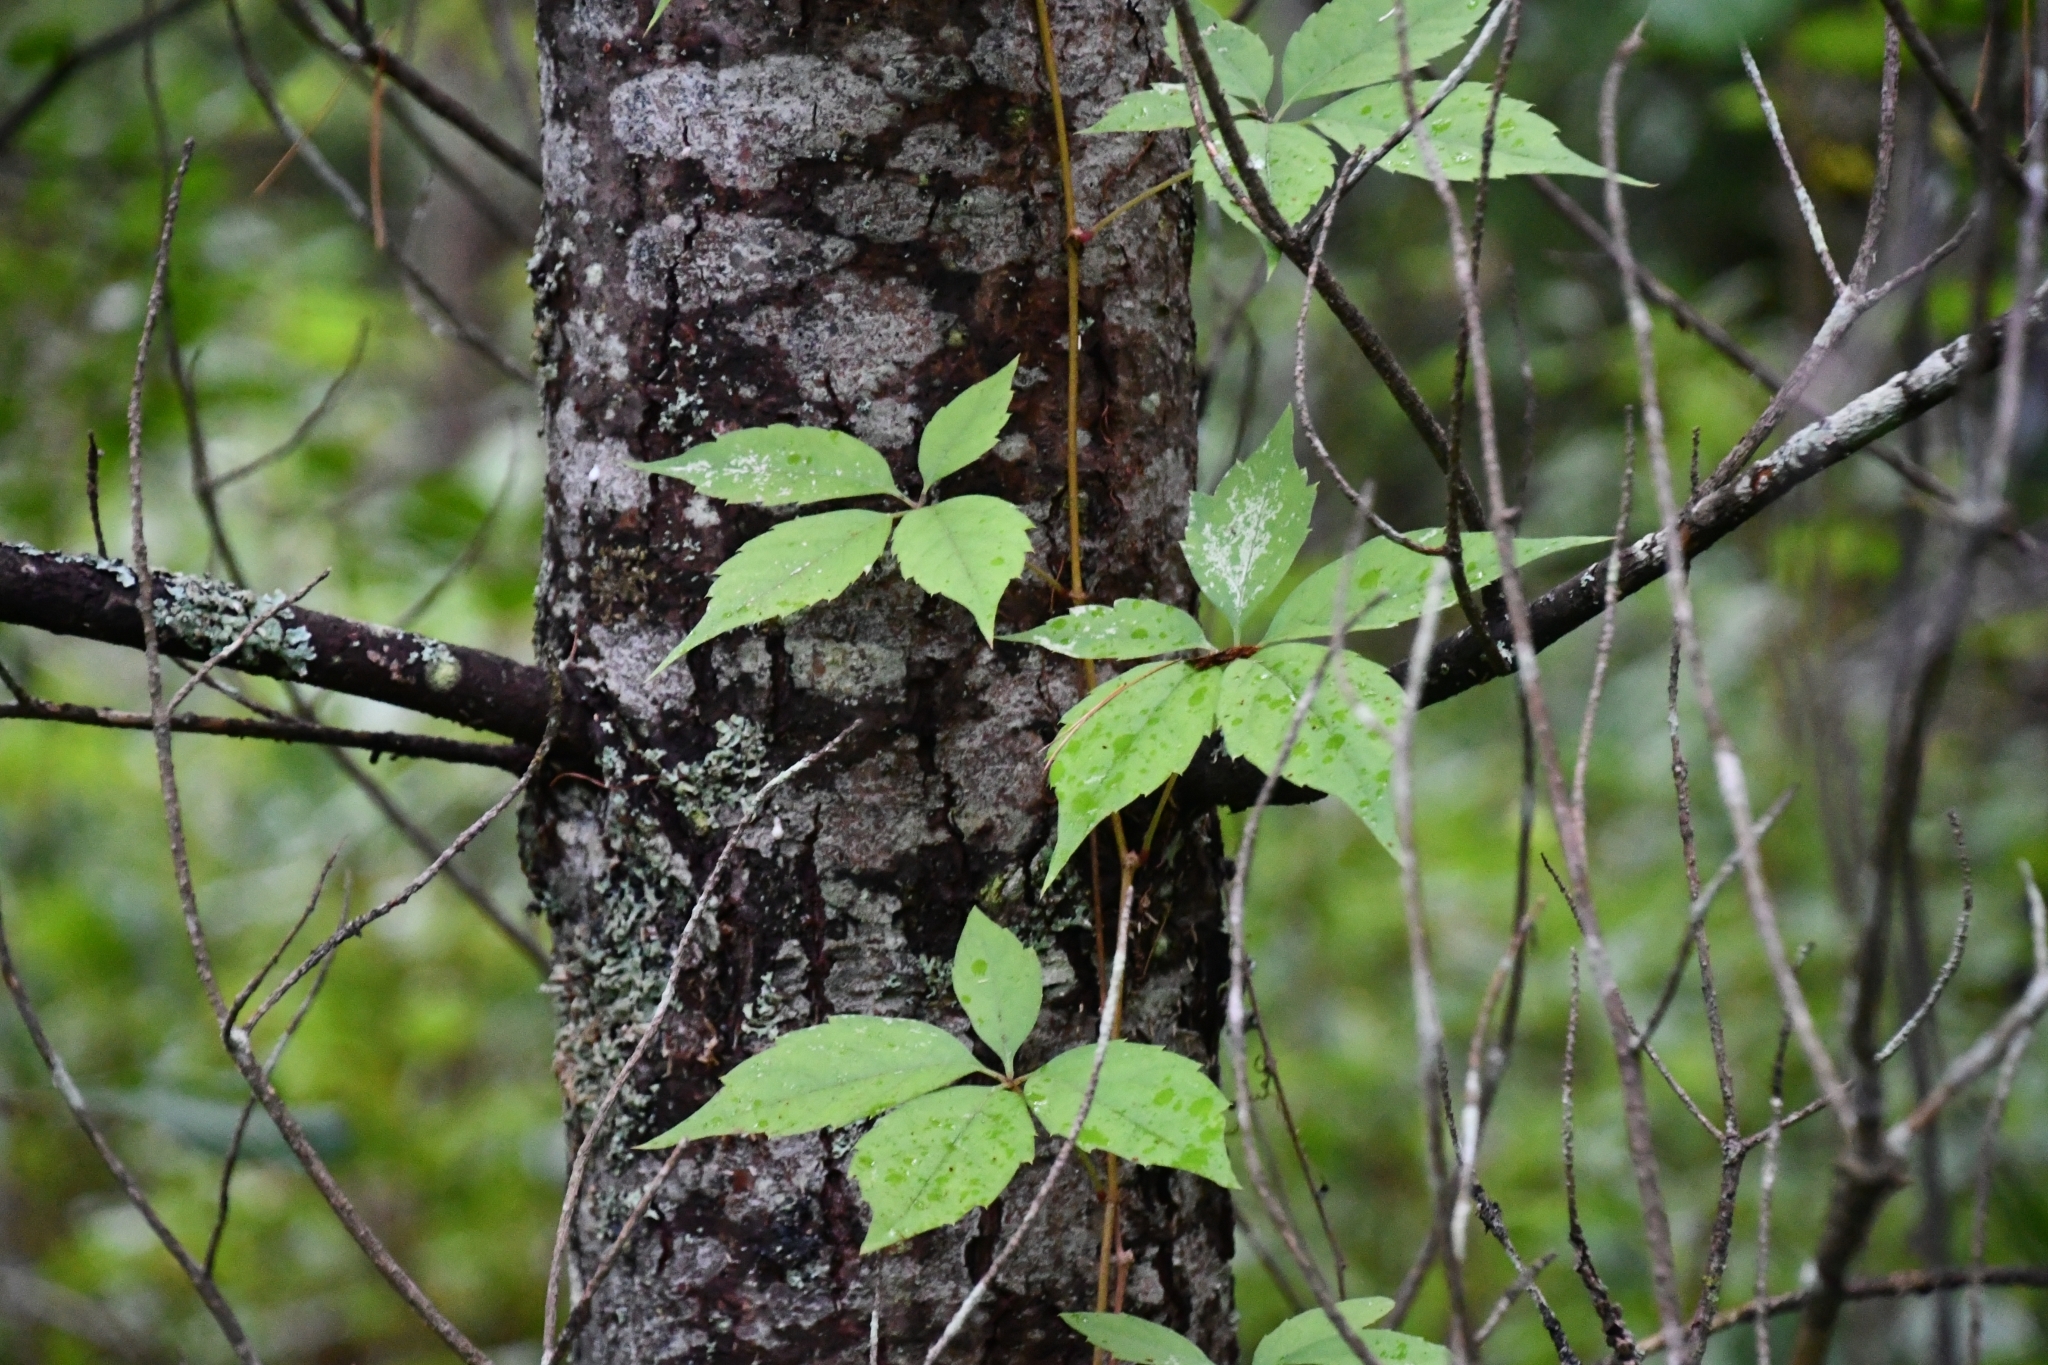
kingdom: Plantae
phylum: Tracheophyta
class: Magnoliopsida
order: Vitales
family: Vitaceae
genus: Parthenocissus
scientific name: Parthenocissus quinquefolia
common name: Virginia-creeper
